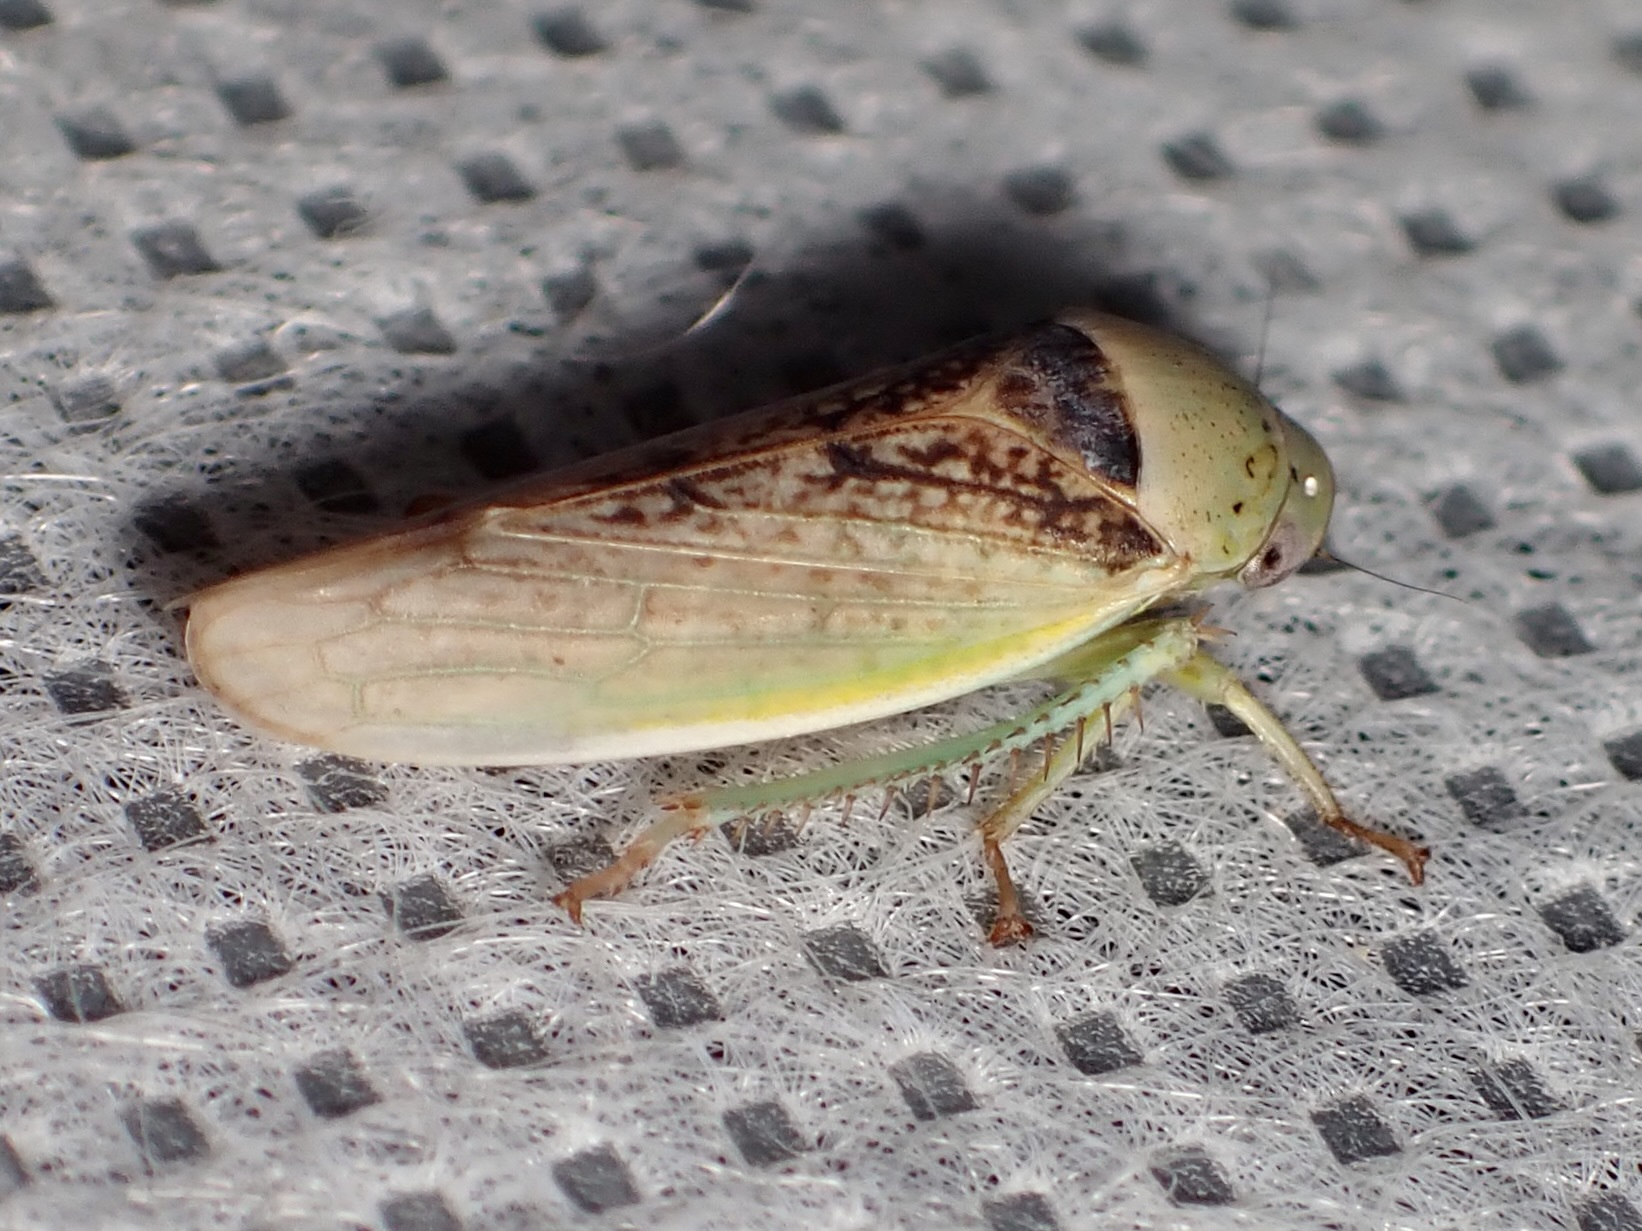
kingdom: Animalia
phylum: Arthropoda
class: Insecta
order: Hemiptera
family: Cicadellidae
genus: Hamana
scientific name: Hamana dictitoria
